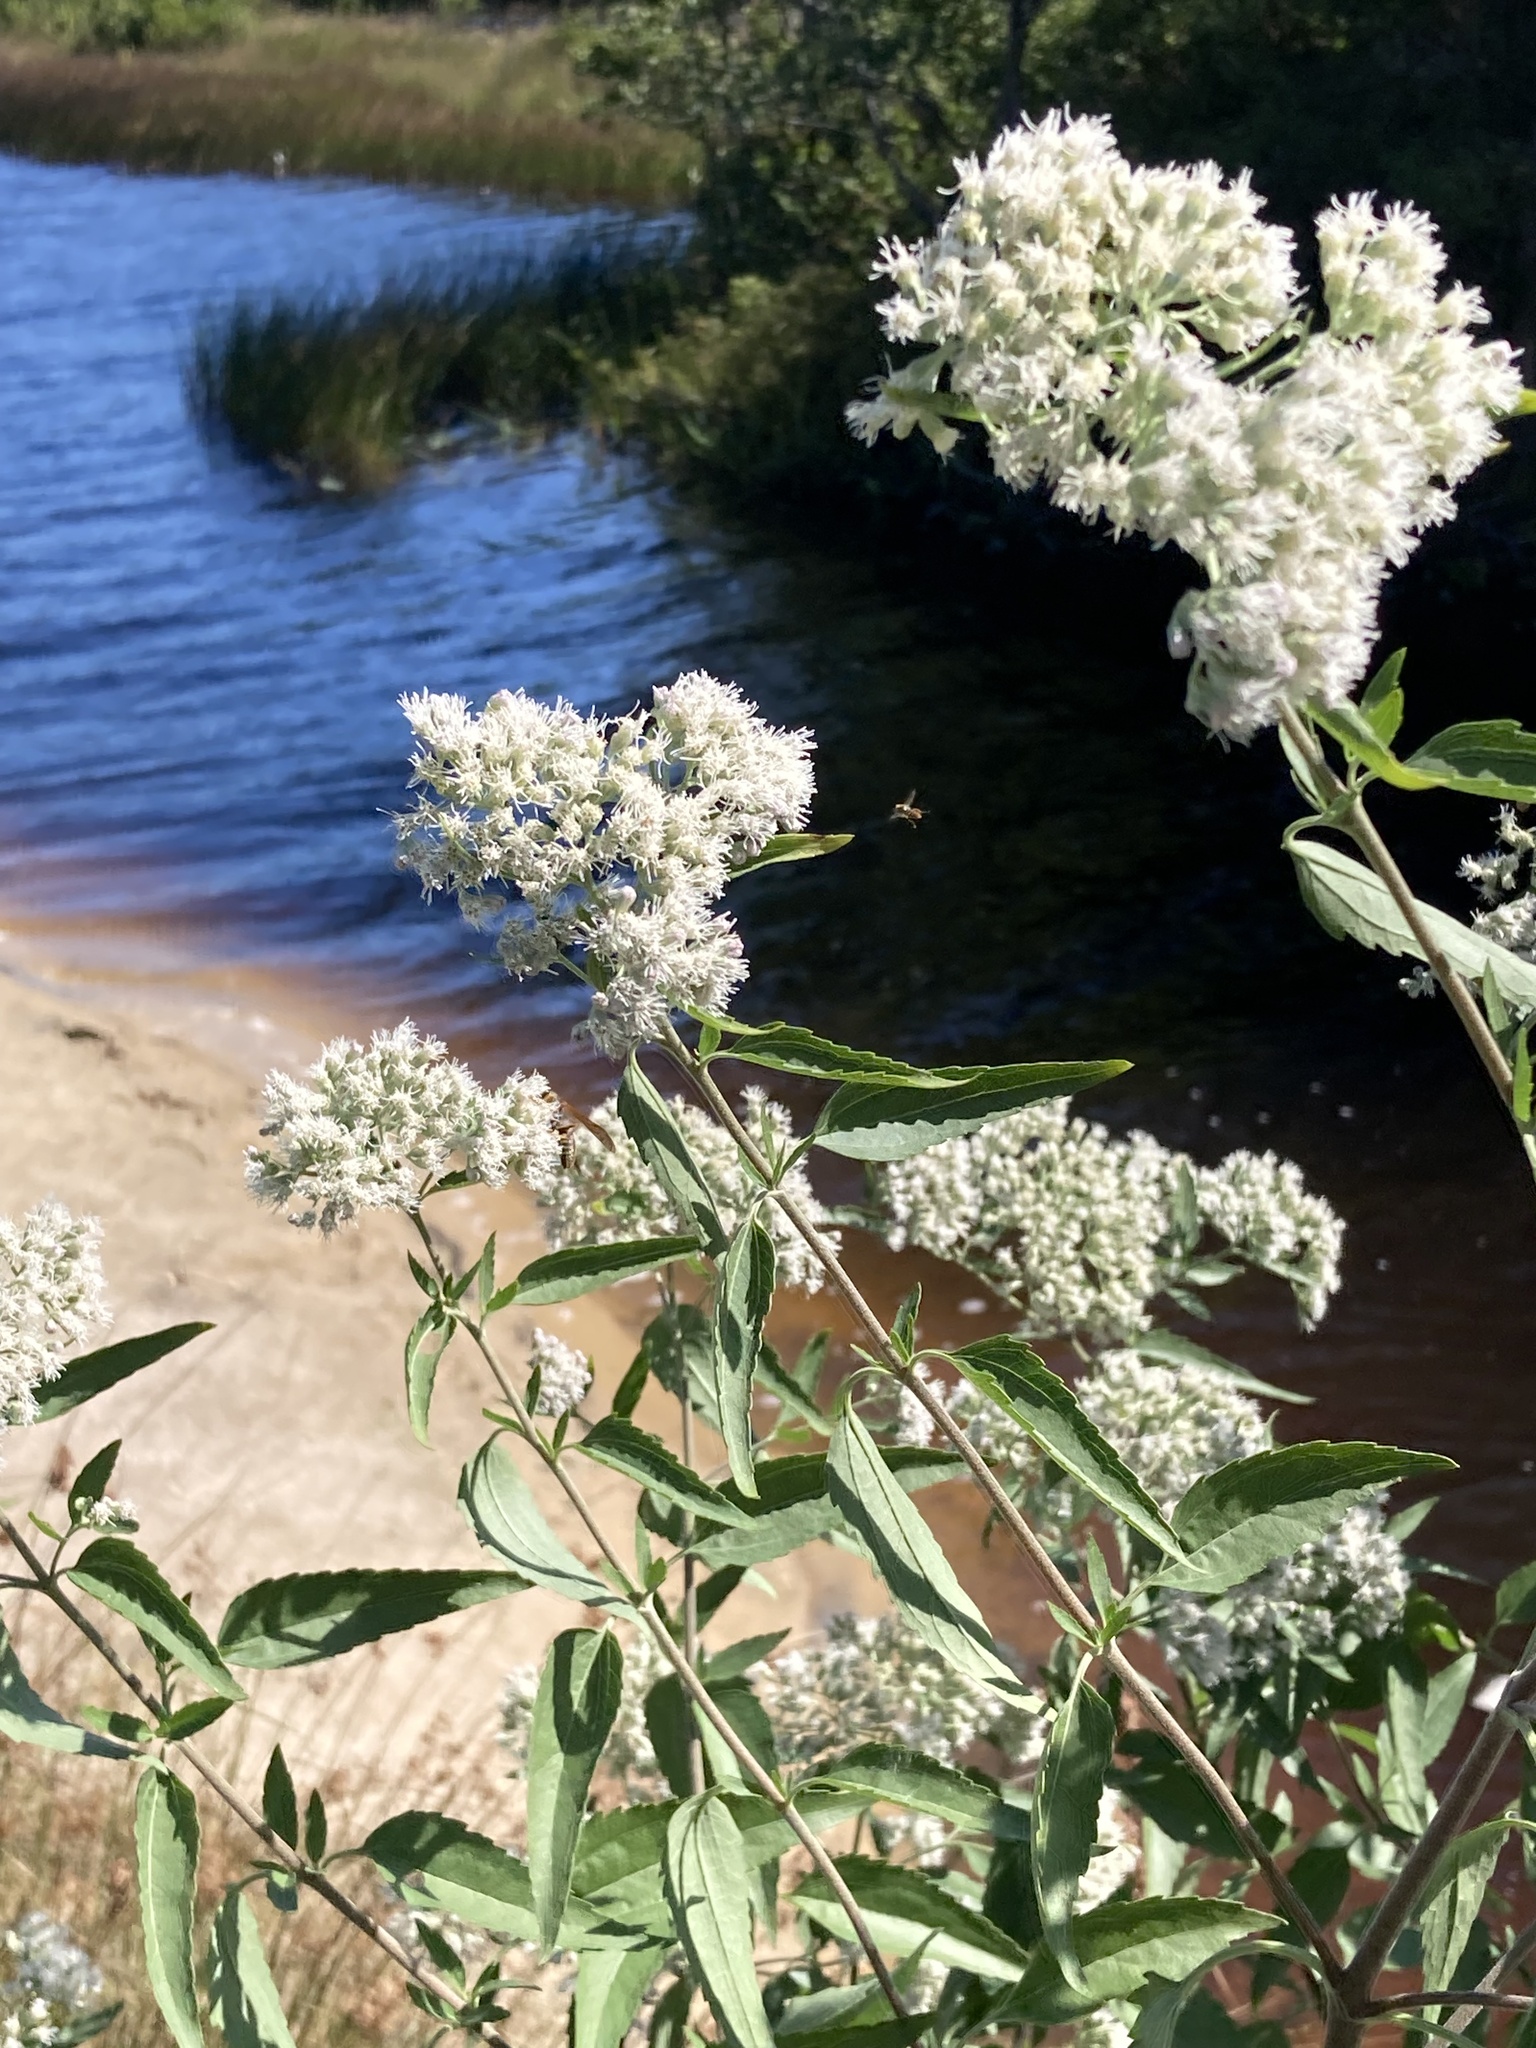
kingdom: Plantae
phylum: Tracheophyta
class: Magnoliopsida
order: Asterales
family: Asteraceae
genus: Eupatorium
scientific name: Eupatorium serotinum
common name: Late boneset
